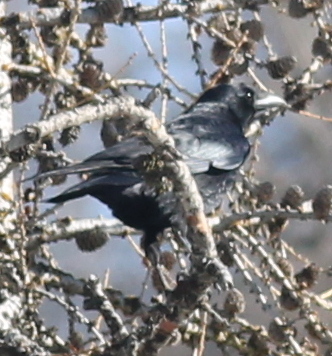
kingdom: Animalia
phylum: Chordata
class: Aves
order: Passeriformes
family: Corvidae
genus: Corvus
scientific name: Corvus corax
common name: Common raven
